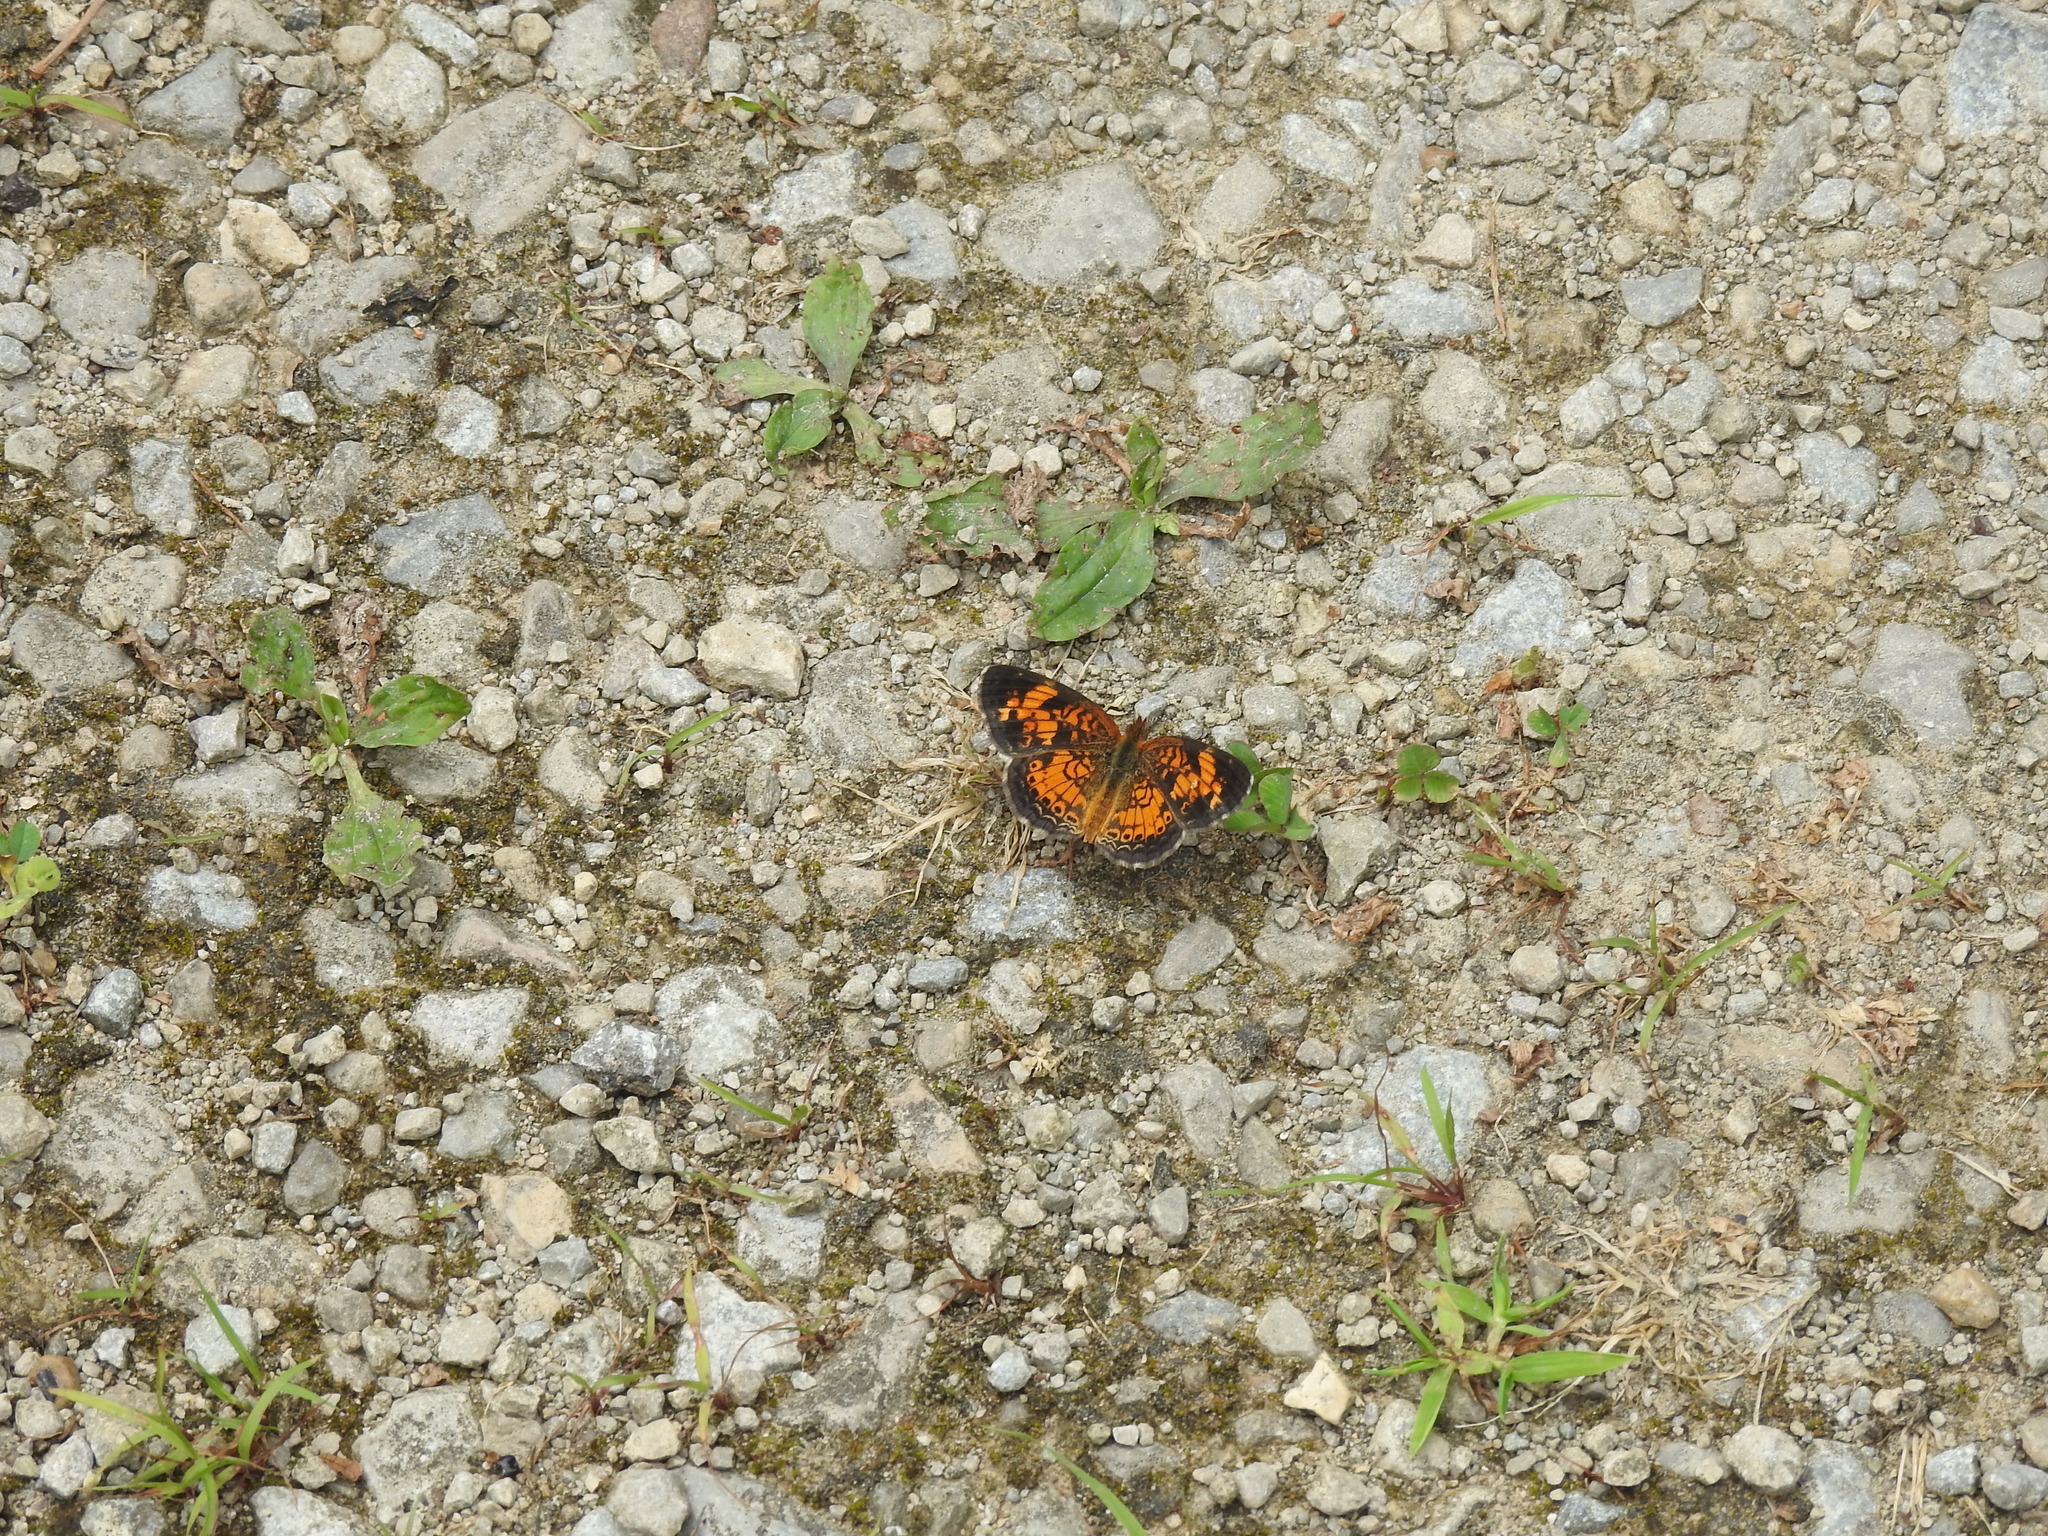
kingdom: Animalia
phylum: Arthropoda
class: Insecta
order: Lepidoptera
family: Nymphalidae
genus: Phyciodes
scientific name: Phyciodes tharos
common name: Pearl crescent
